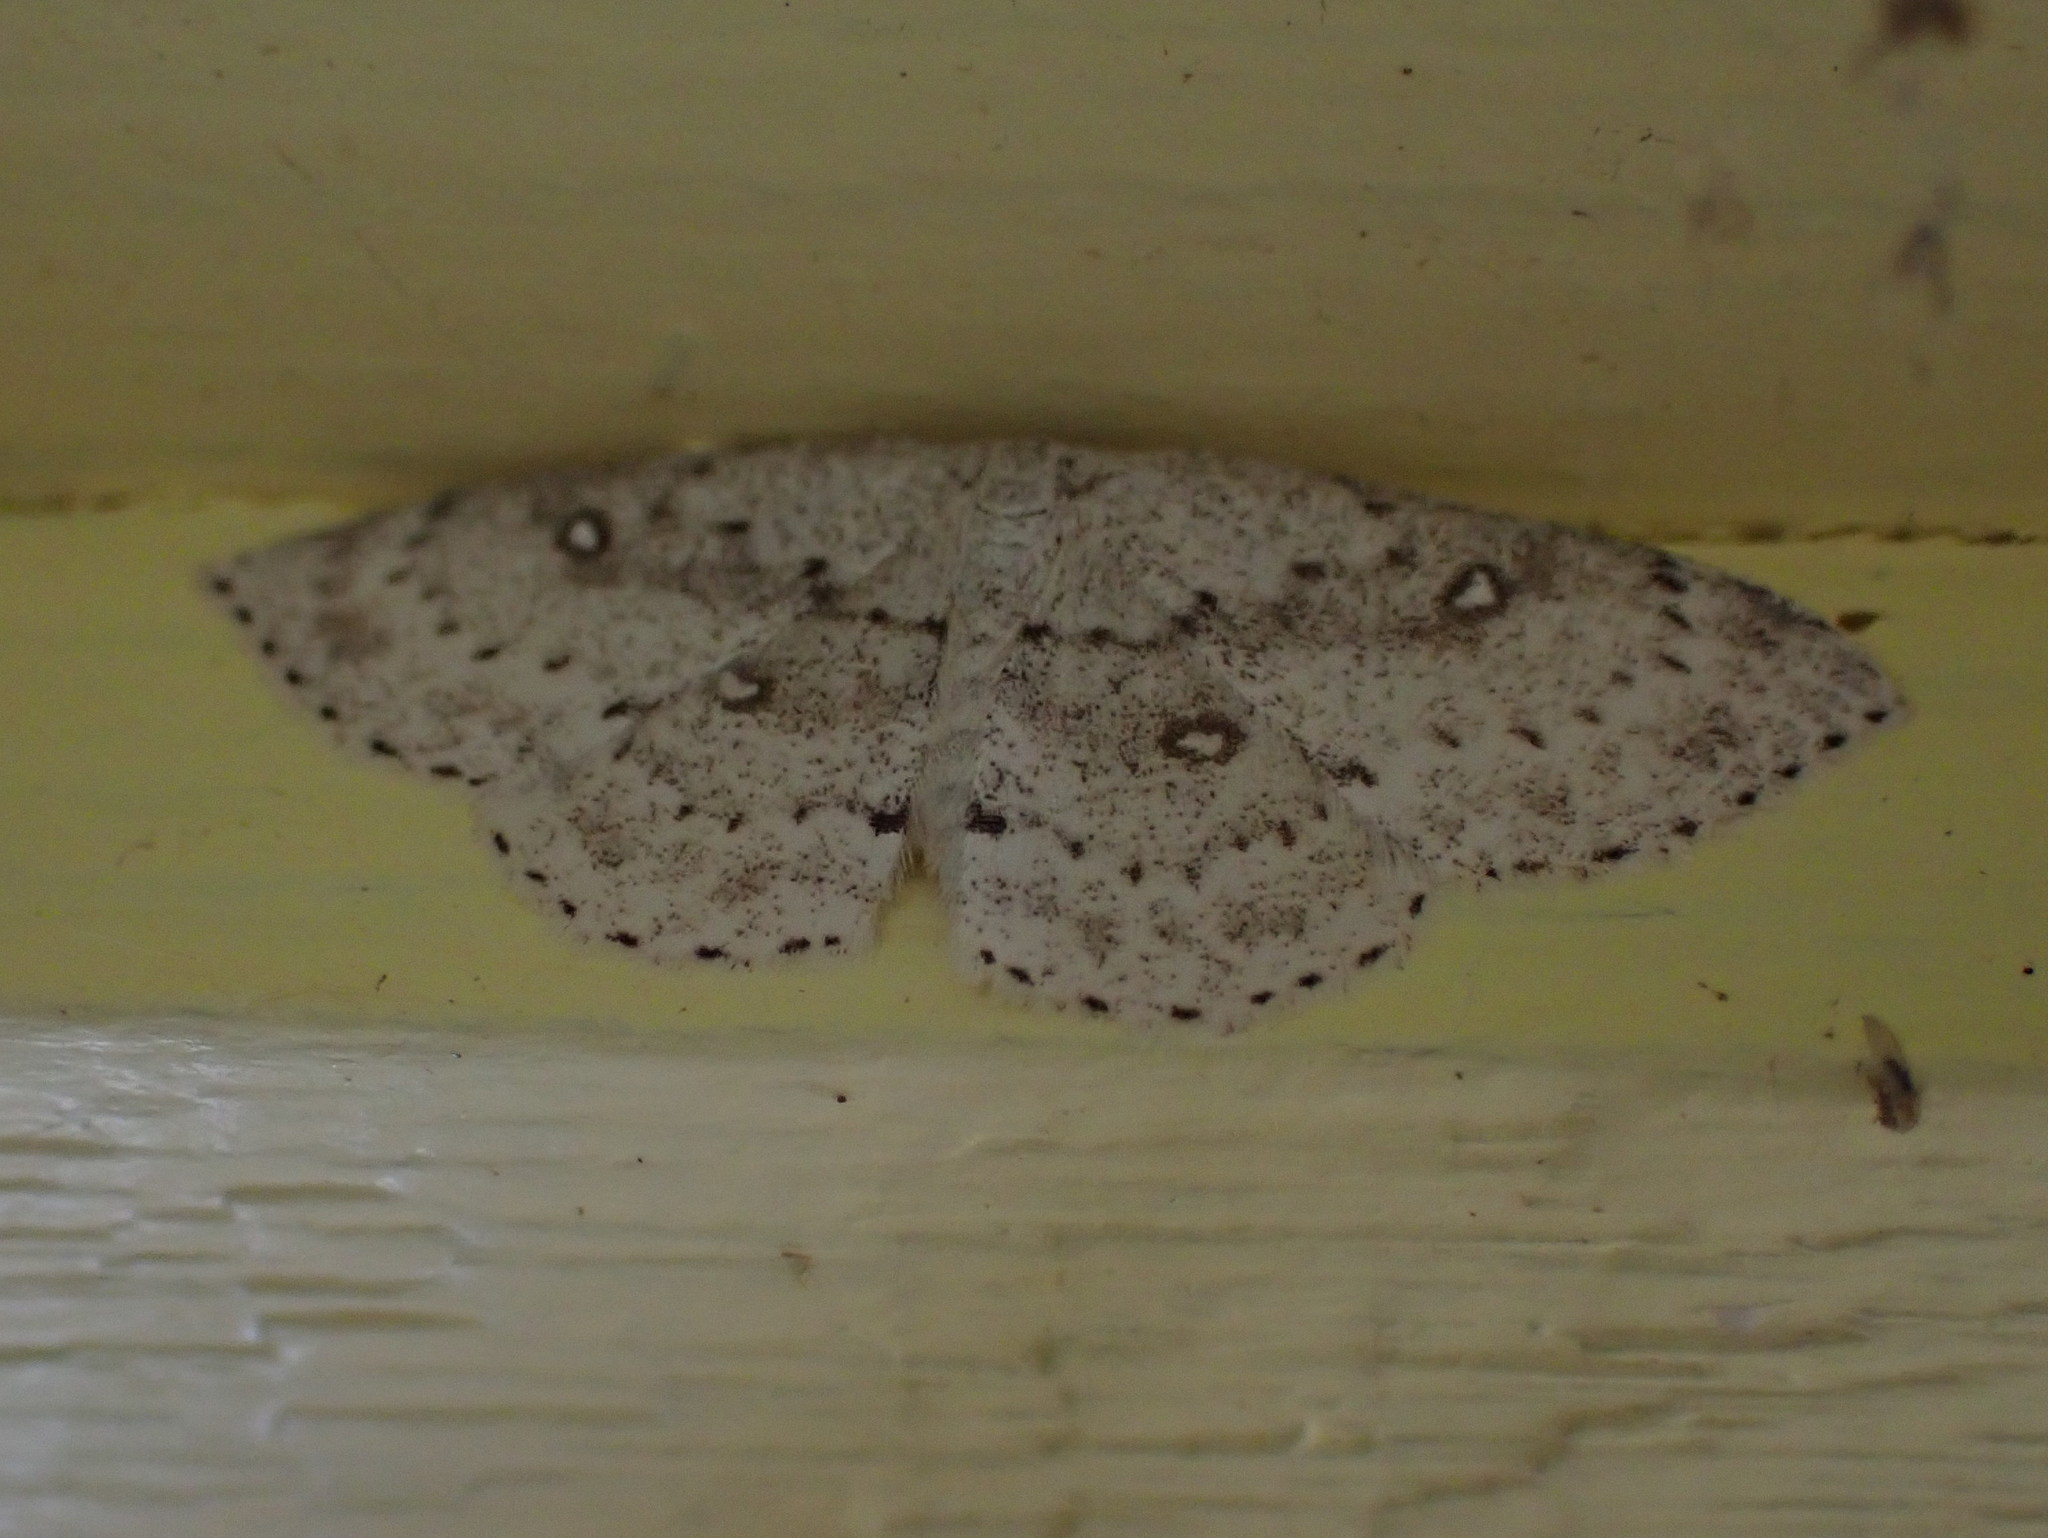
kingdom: Animalia
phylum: Arthropoda
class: Insecta
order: Lepidoptera
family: Geometridae
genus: Cyclophora
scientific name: Cyclophora pendulinaria
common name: Sweet fern geometer
